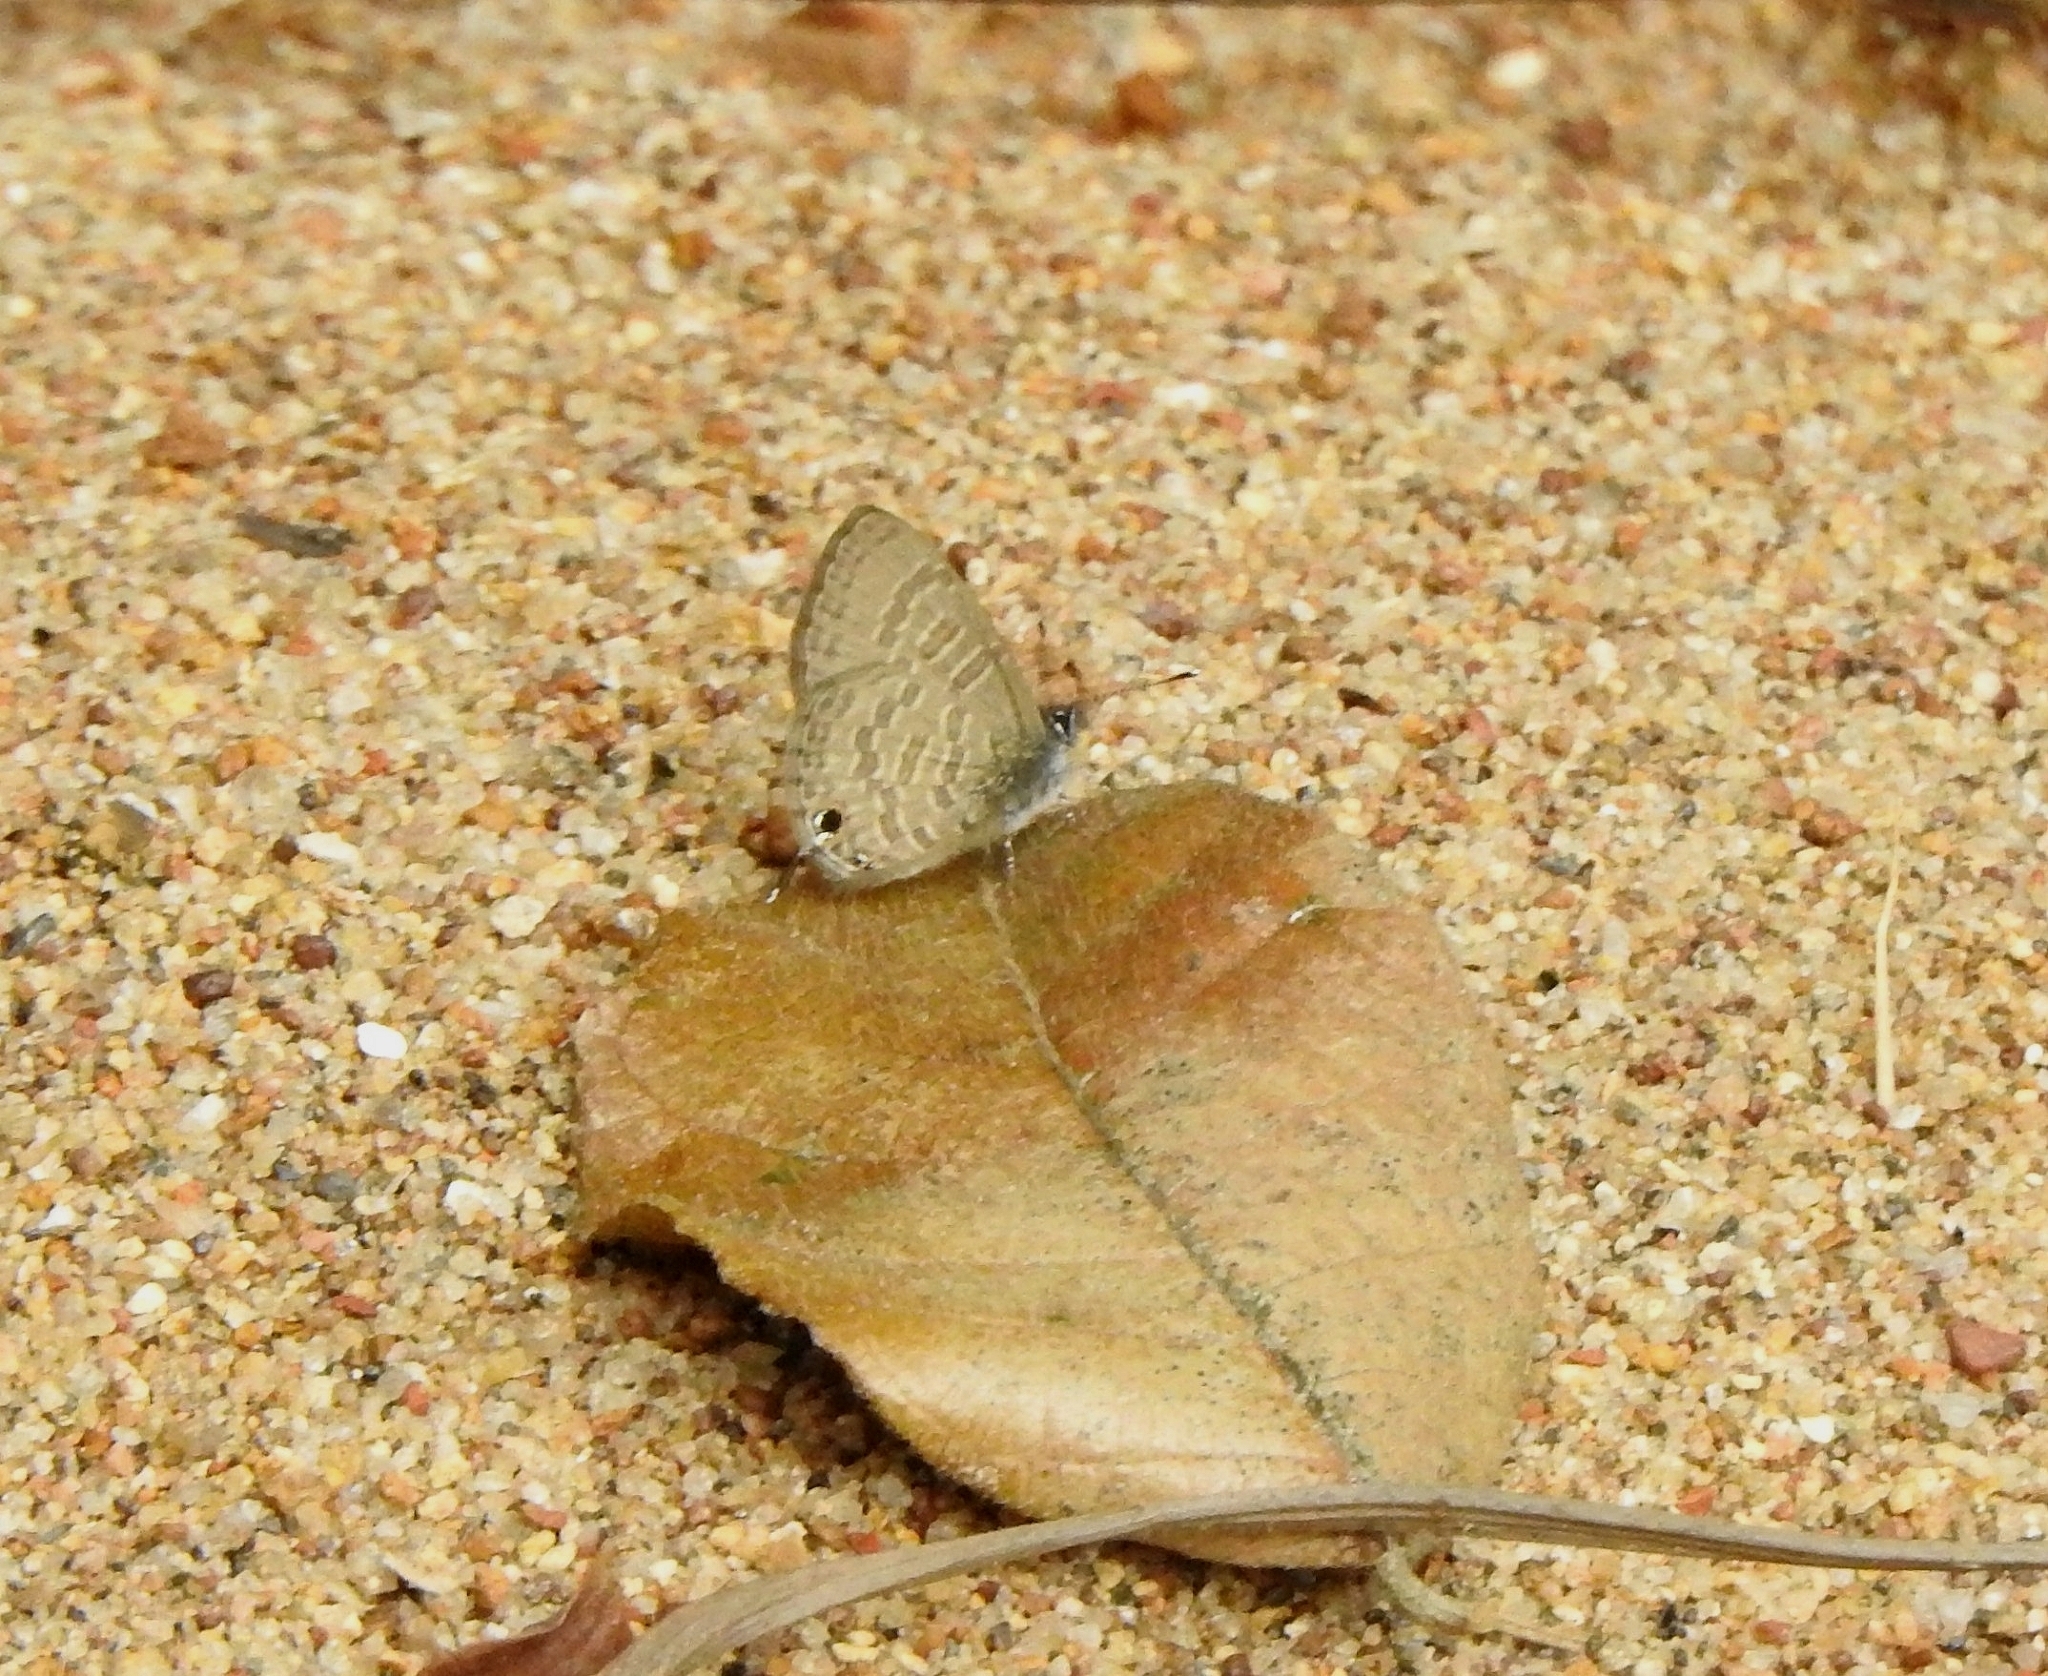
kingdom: Animalia
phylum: Arthropoda
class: Insecta
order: Lepidoptera
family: Lycaenidae
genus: Prosotas
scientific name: Prosotas nora
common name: Common line blue
